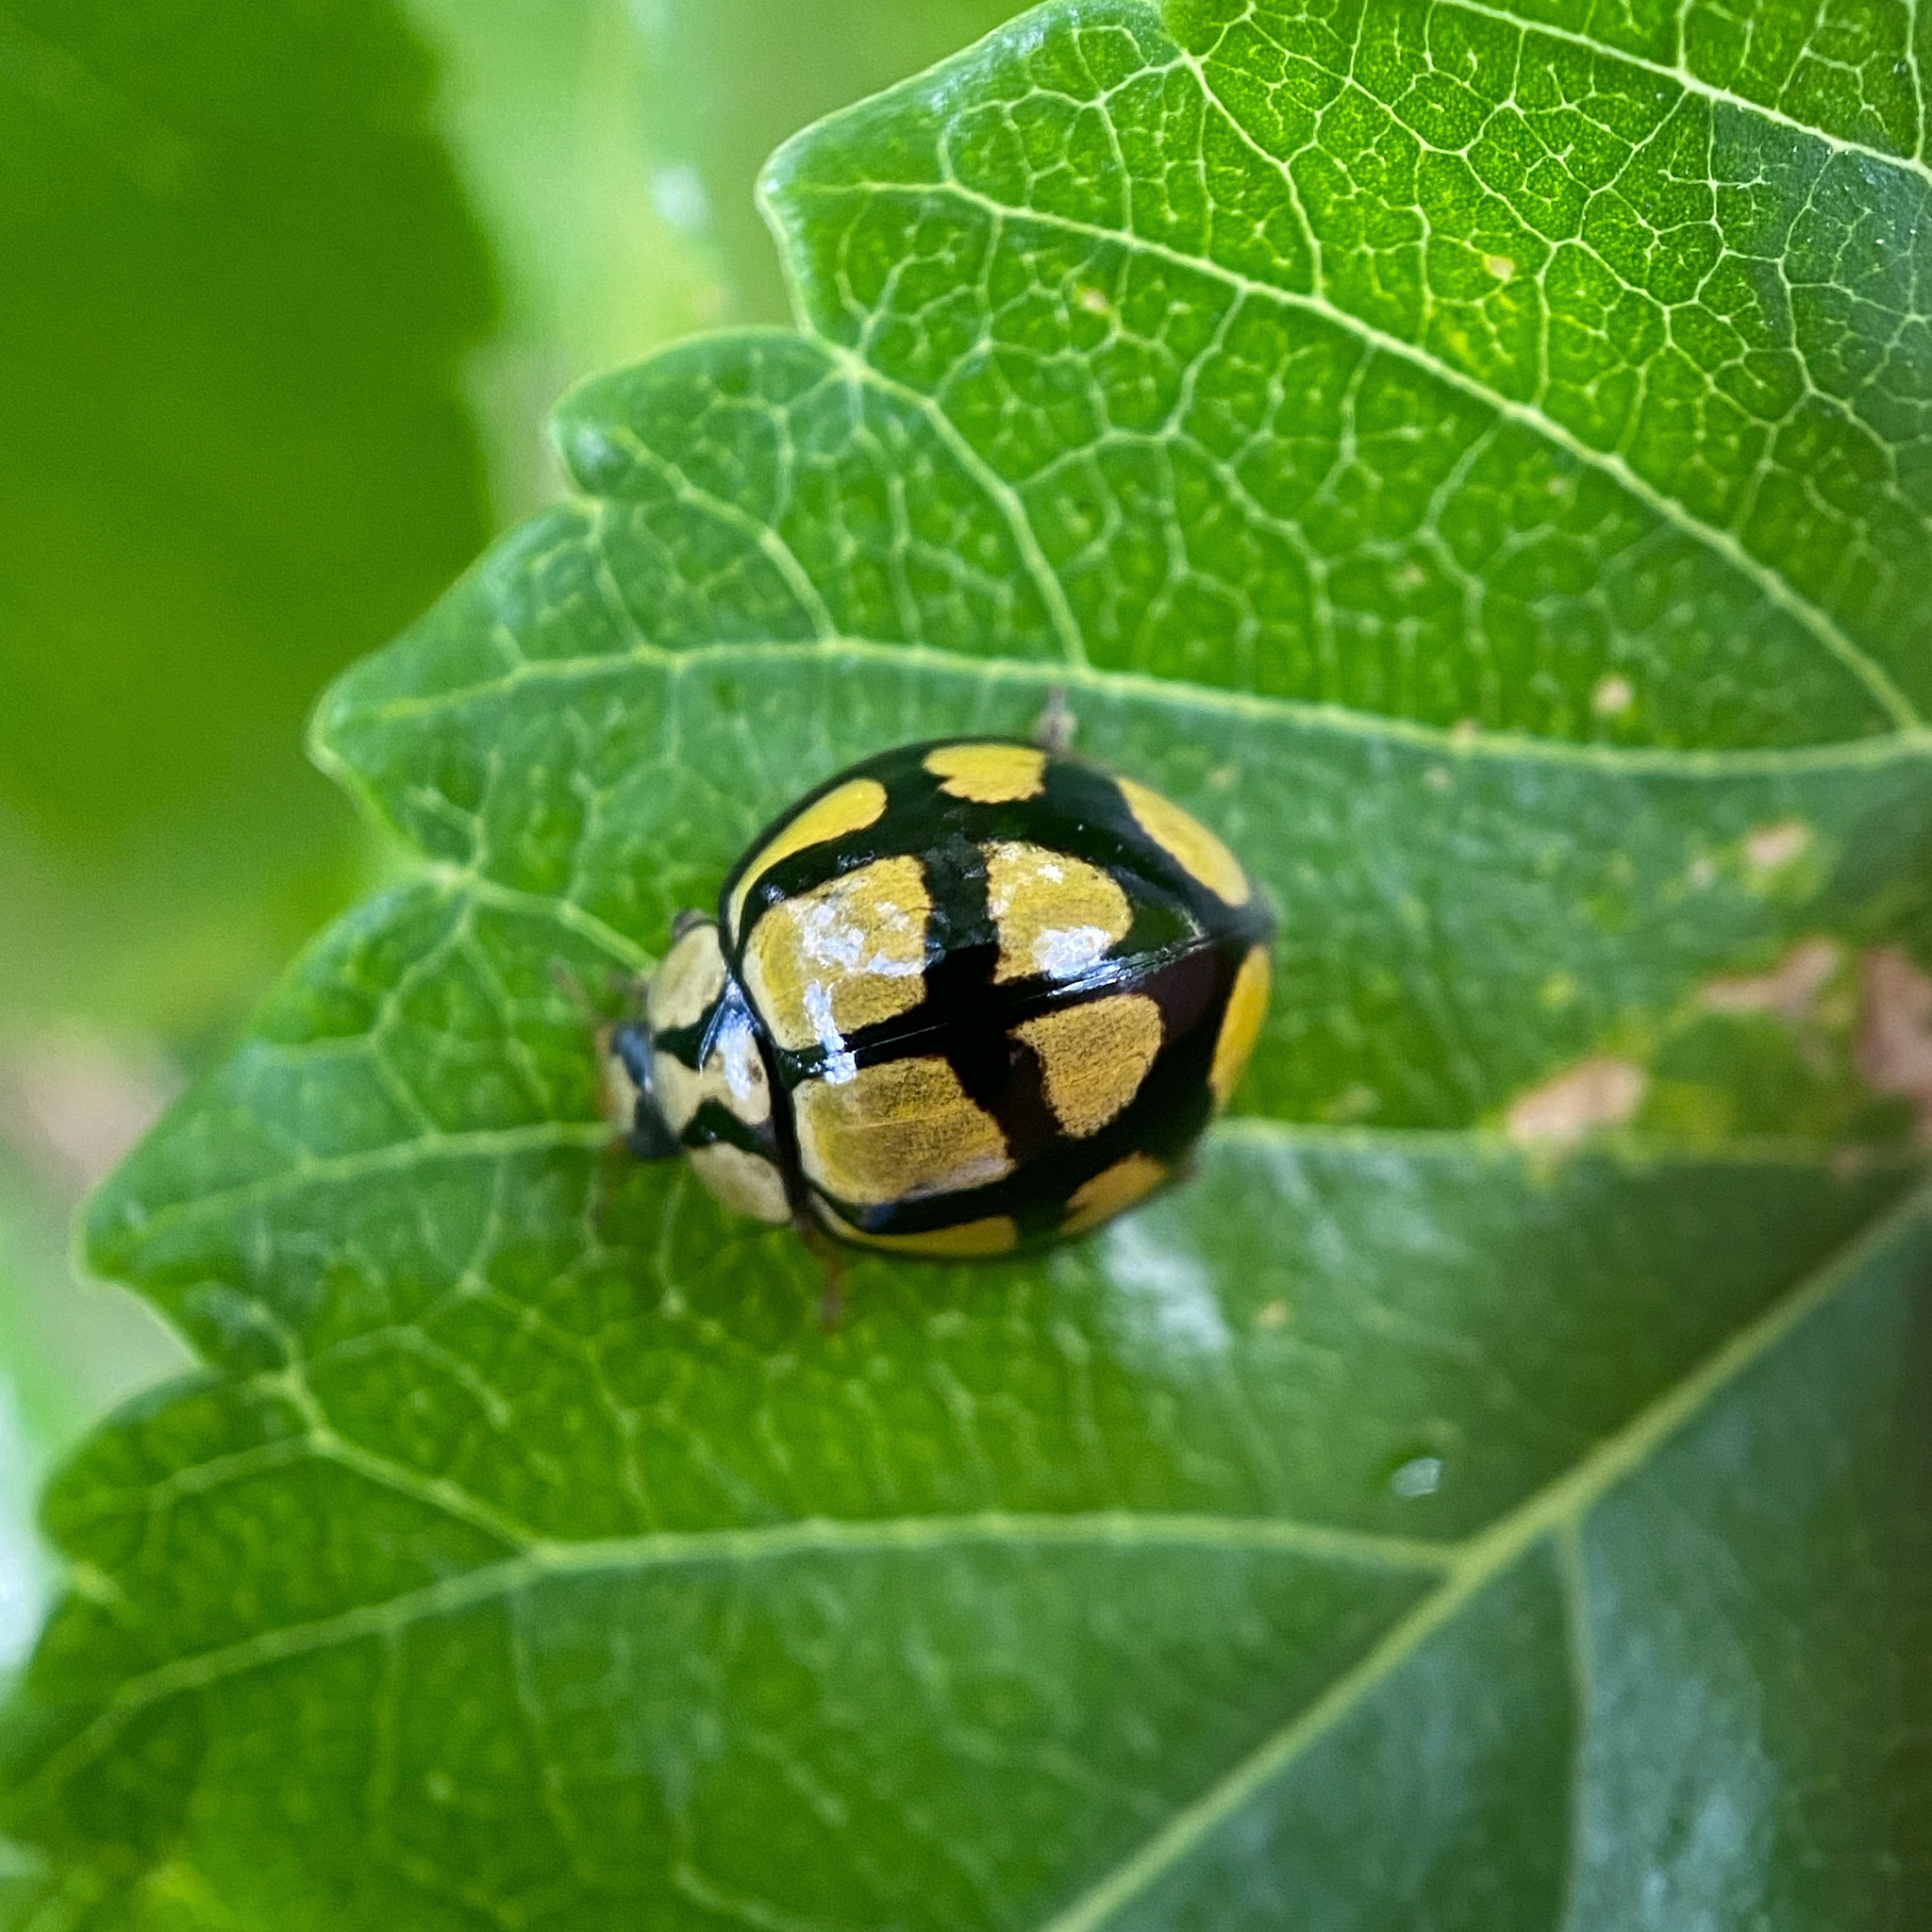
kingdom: Animalia
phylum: Arthropoda
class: Insecta
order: Coleoptera
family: Coccinellidae
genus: Harmonia
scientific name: Harmonia
